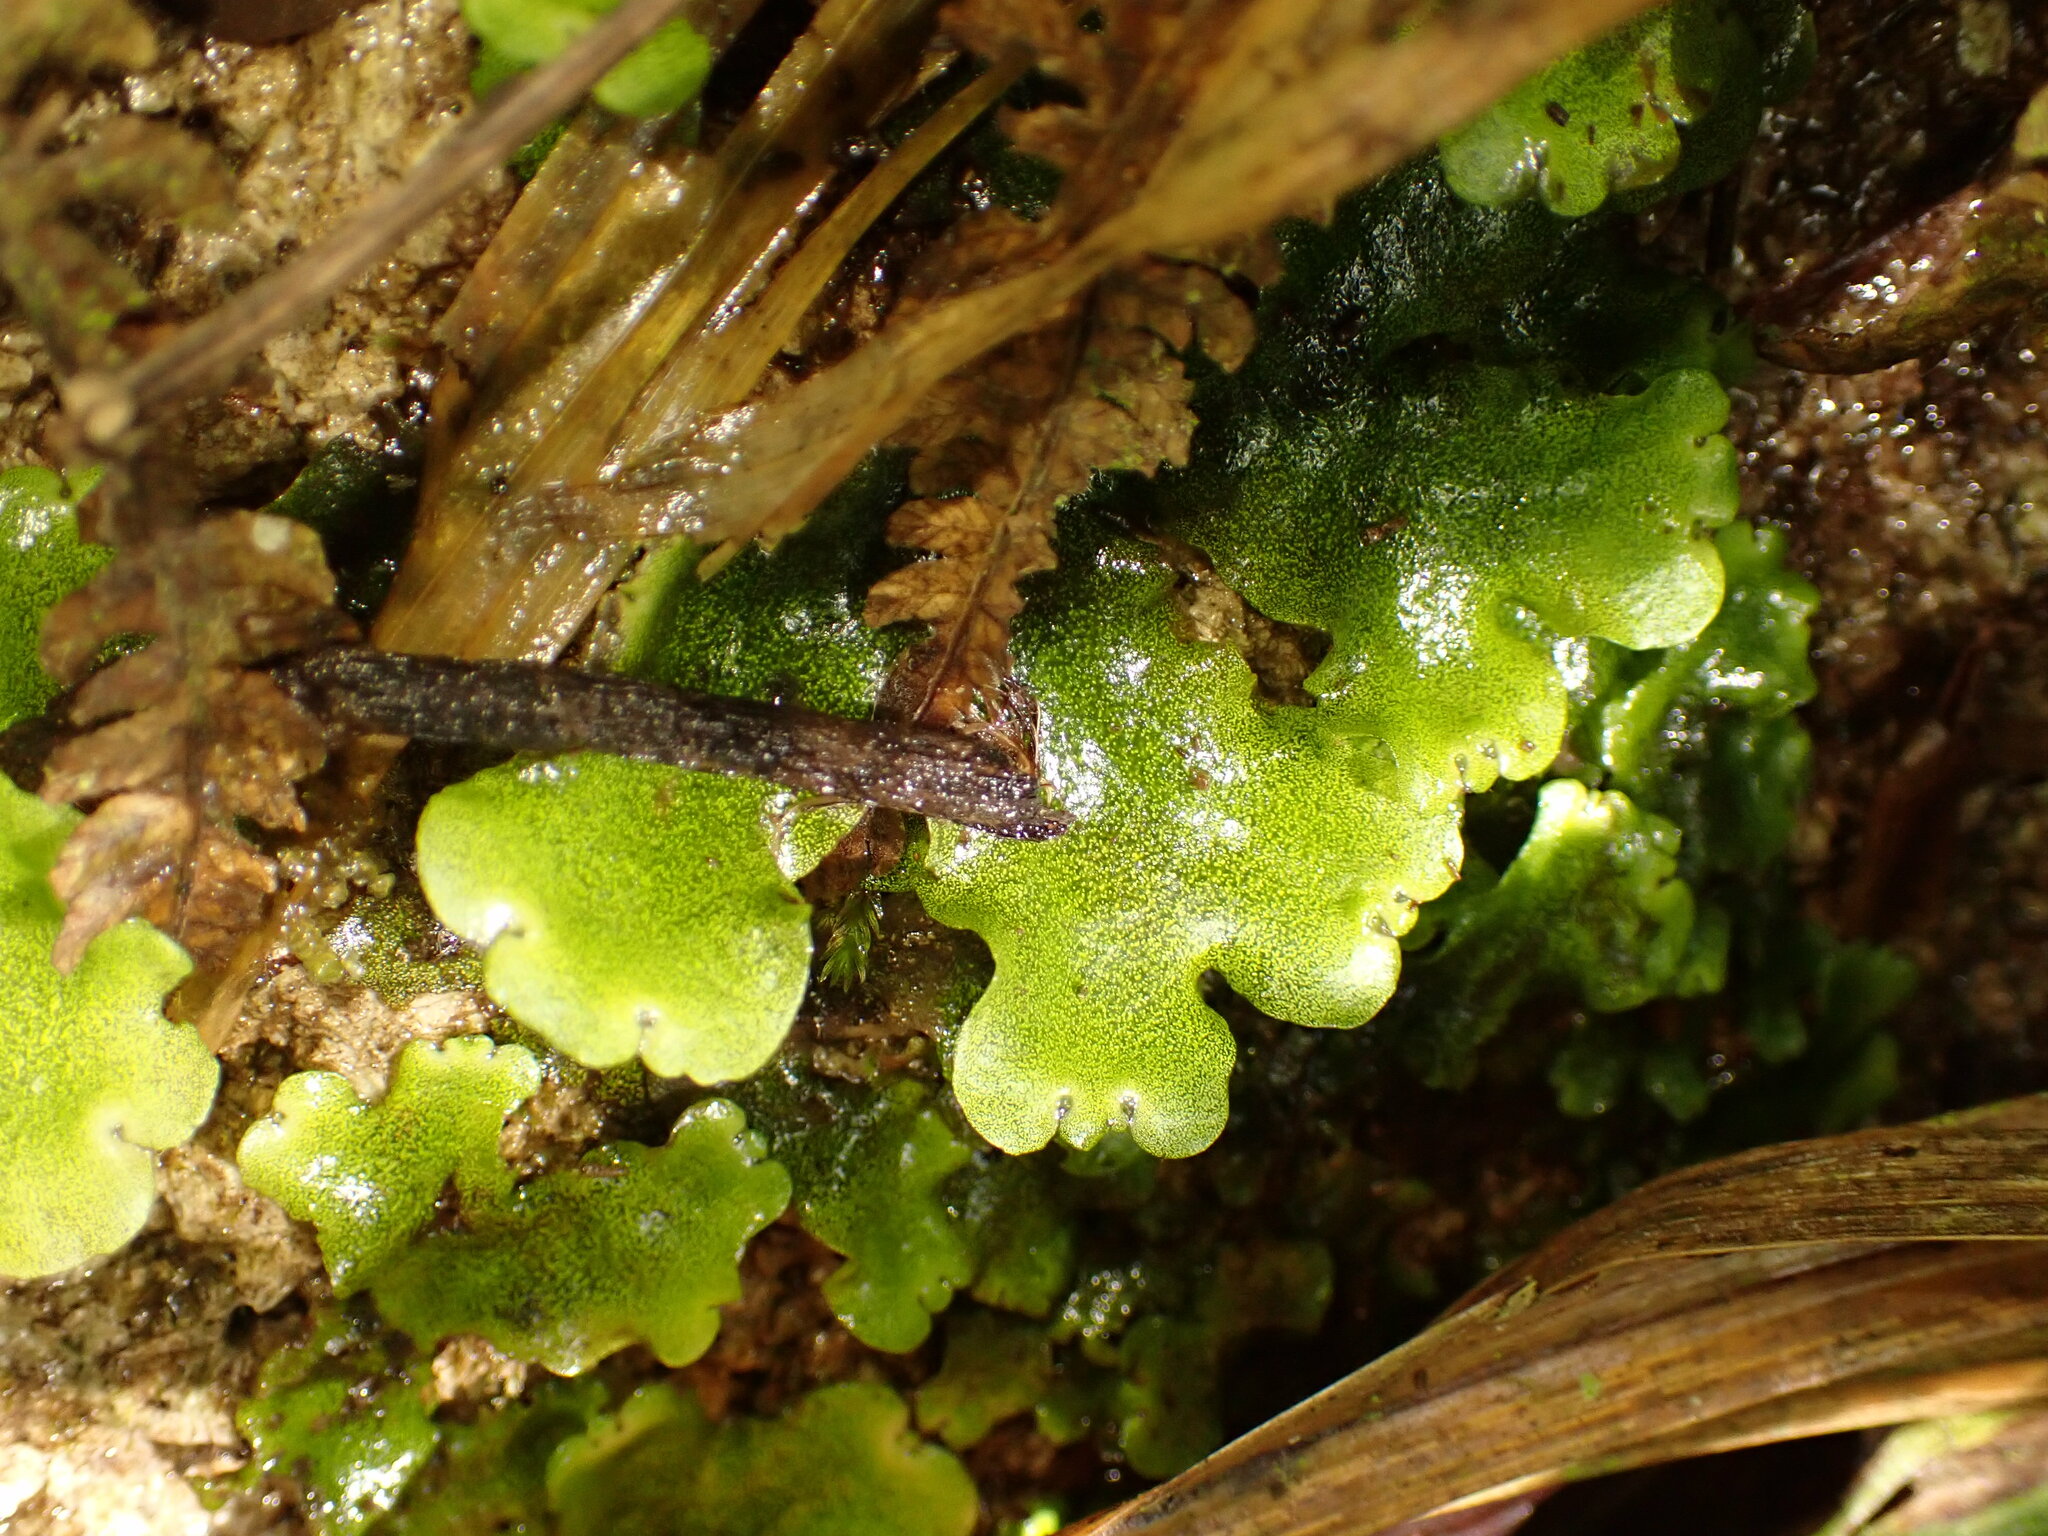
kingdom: Plantae
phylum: Marchantiophyta
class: Marchantiopsida
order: Marchantiales
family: Monocleaceae
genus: Monoclea
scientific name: Monoclea gottschei
